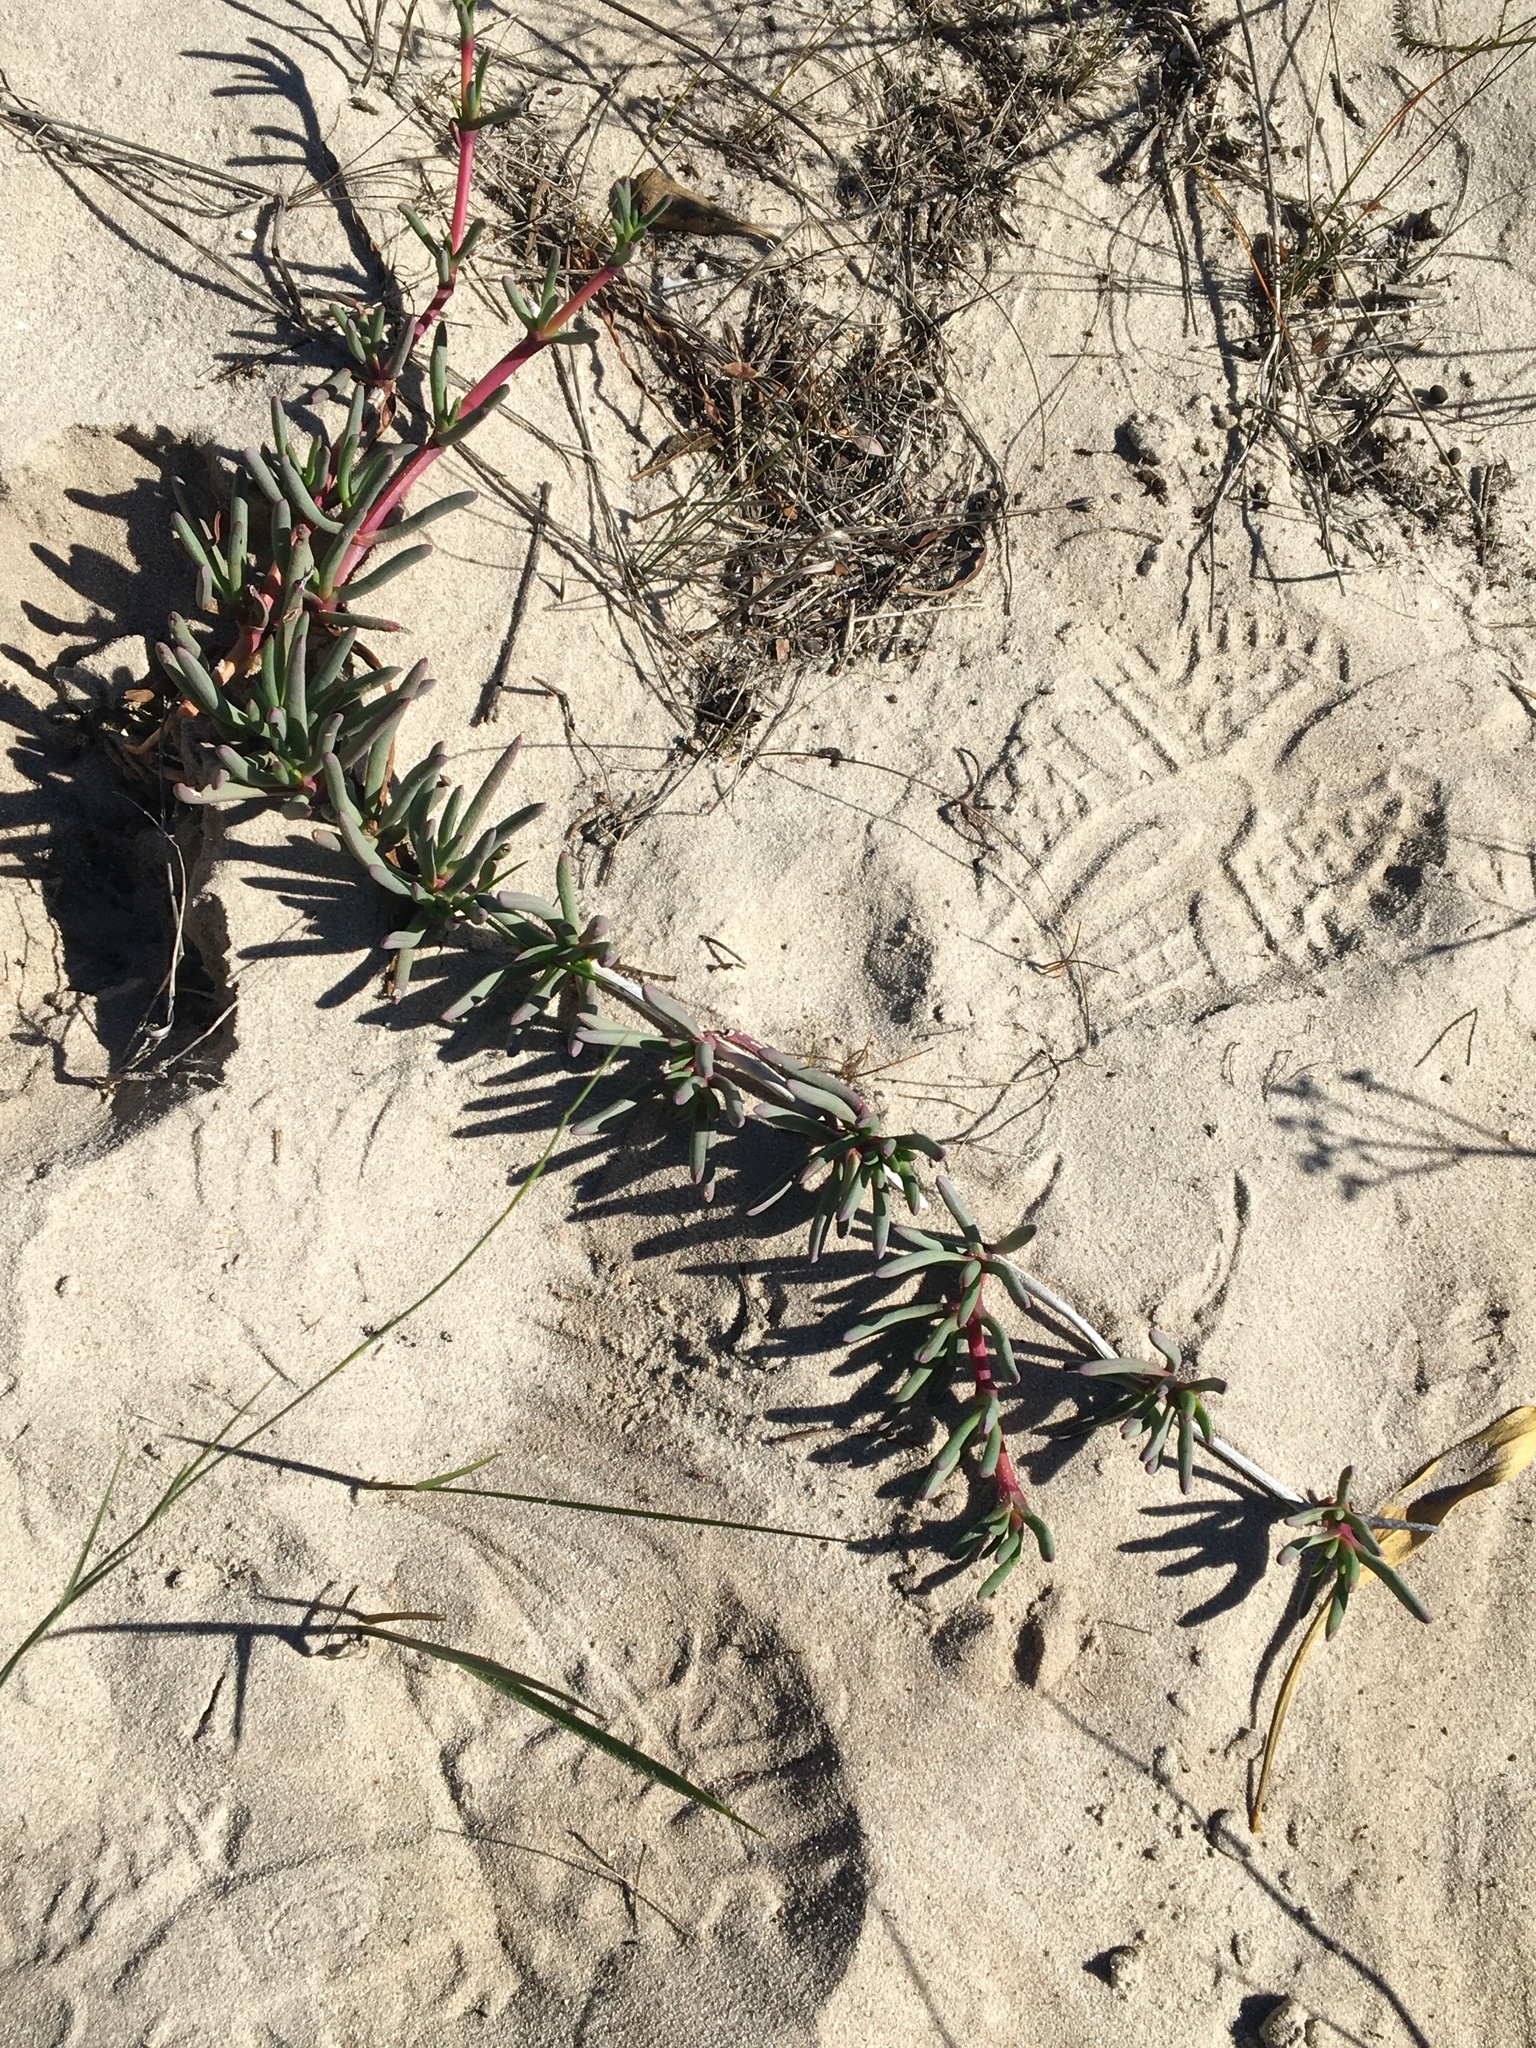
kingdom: Plantae
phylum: Tracheophyta
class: Magnoliopsida
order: Caryophyllales
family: Aizoaceae
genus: Jordaaniella
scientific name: Jordaaniella dubia
